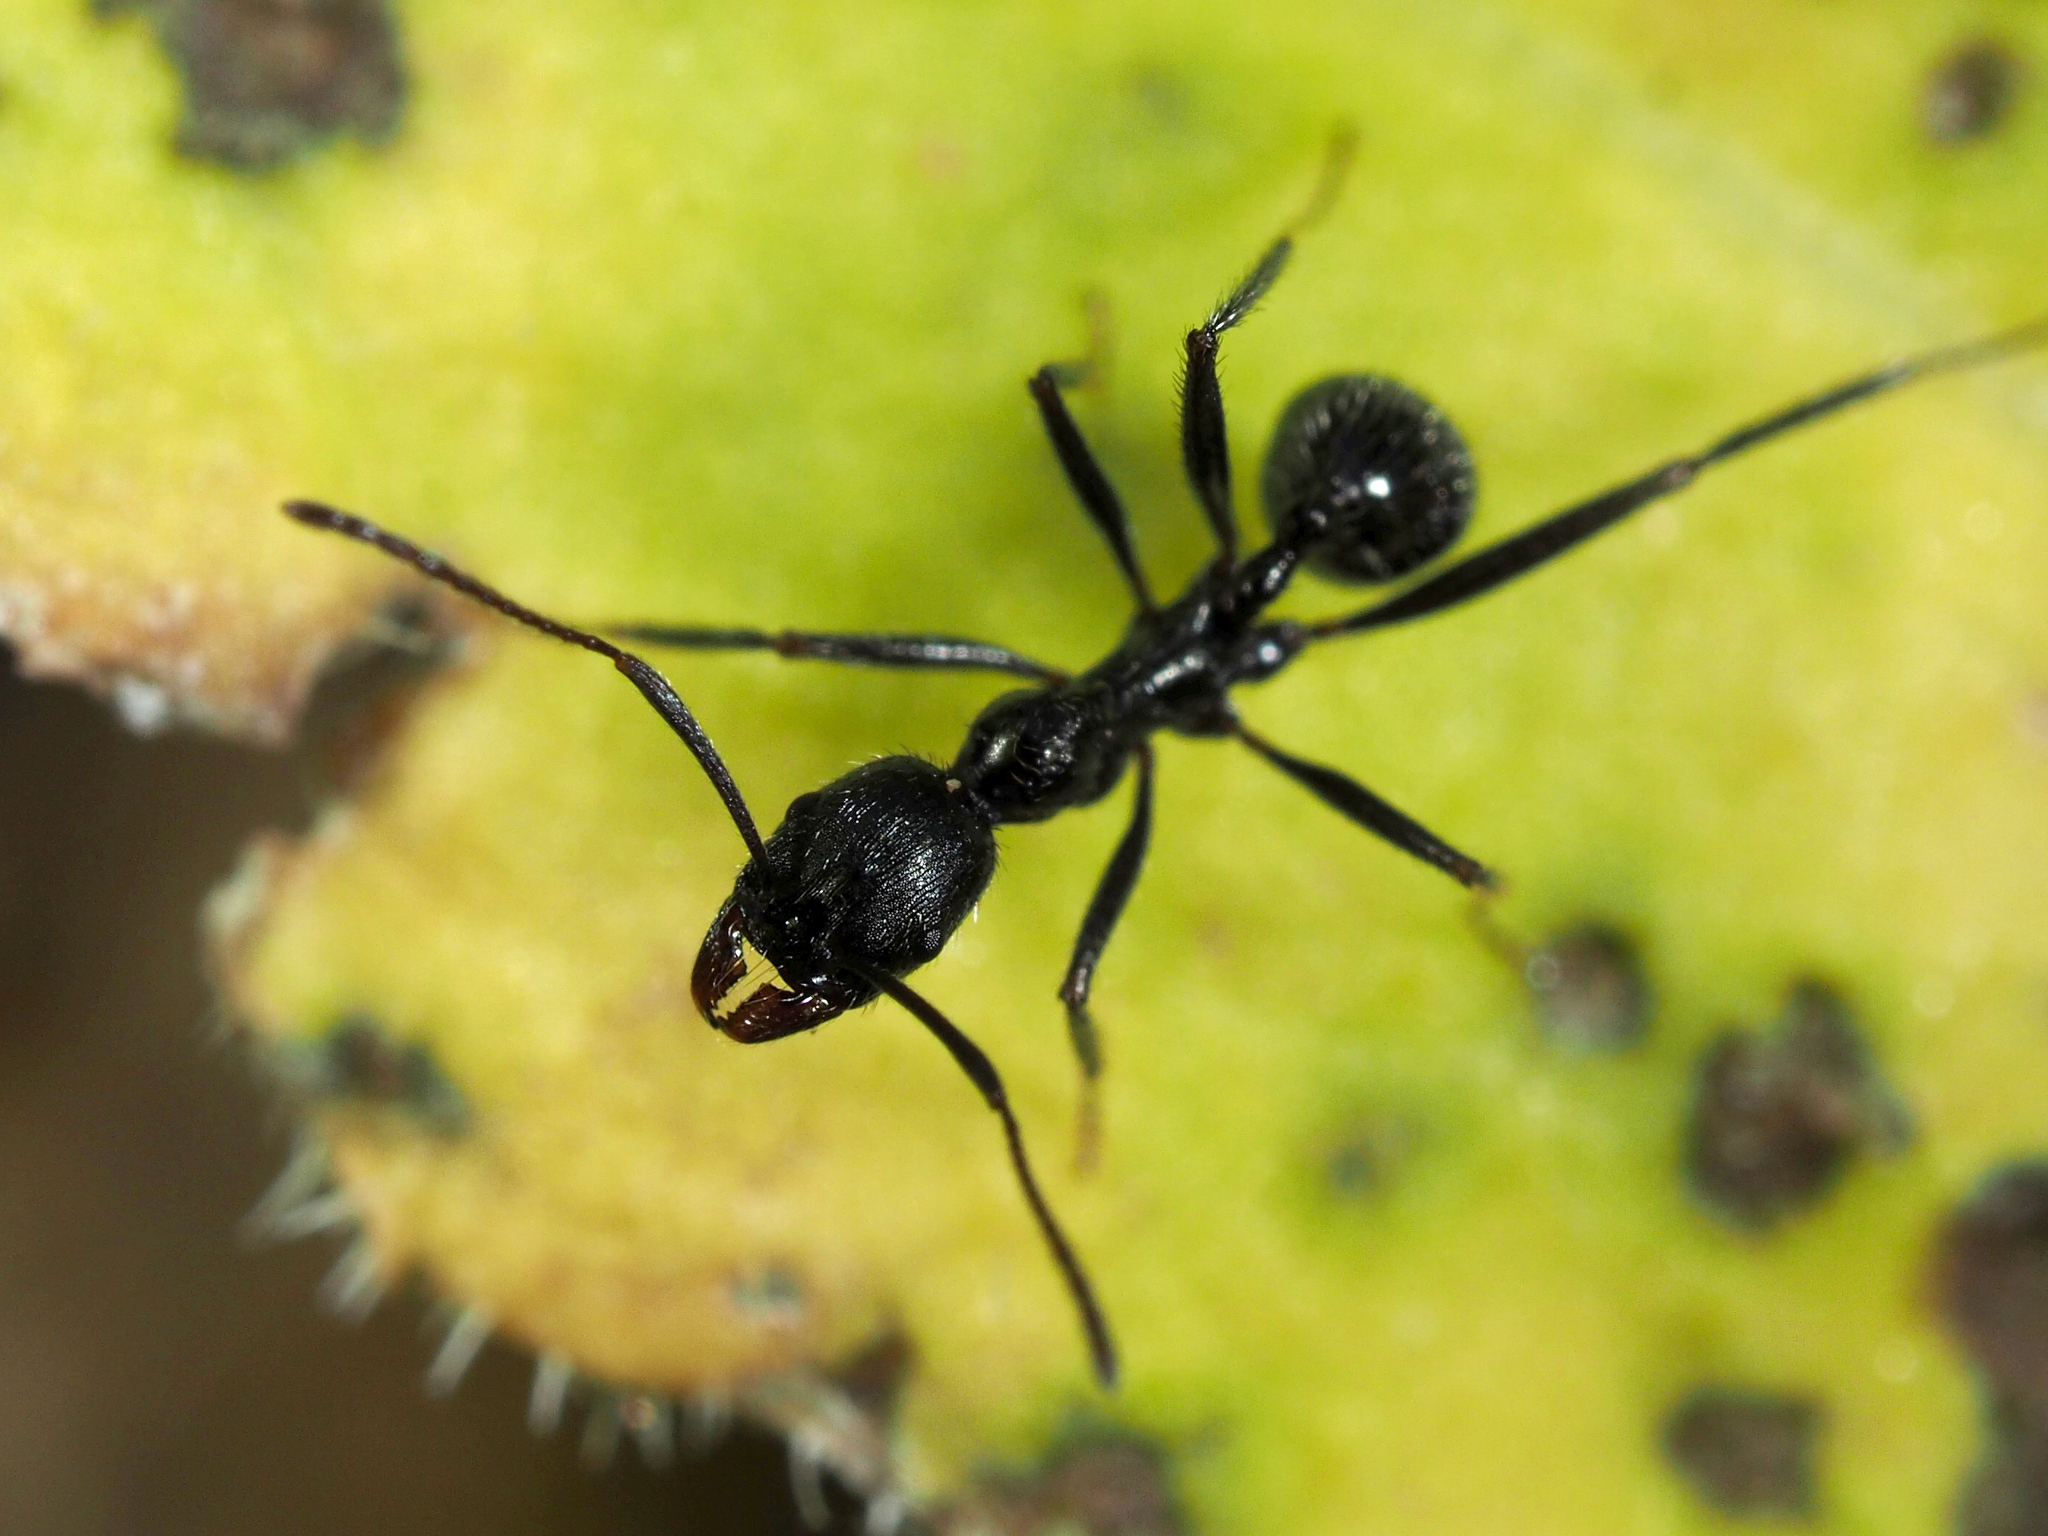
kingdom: Animalia
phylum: Arthropoda
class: Insecta
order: Hymenoptera
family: Formicidae
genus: Aphaenogaster
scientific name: Aphaenogaster semipolita
